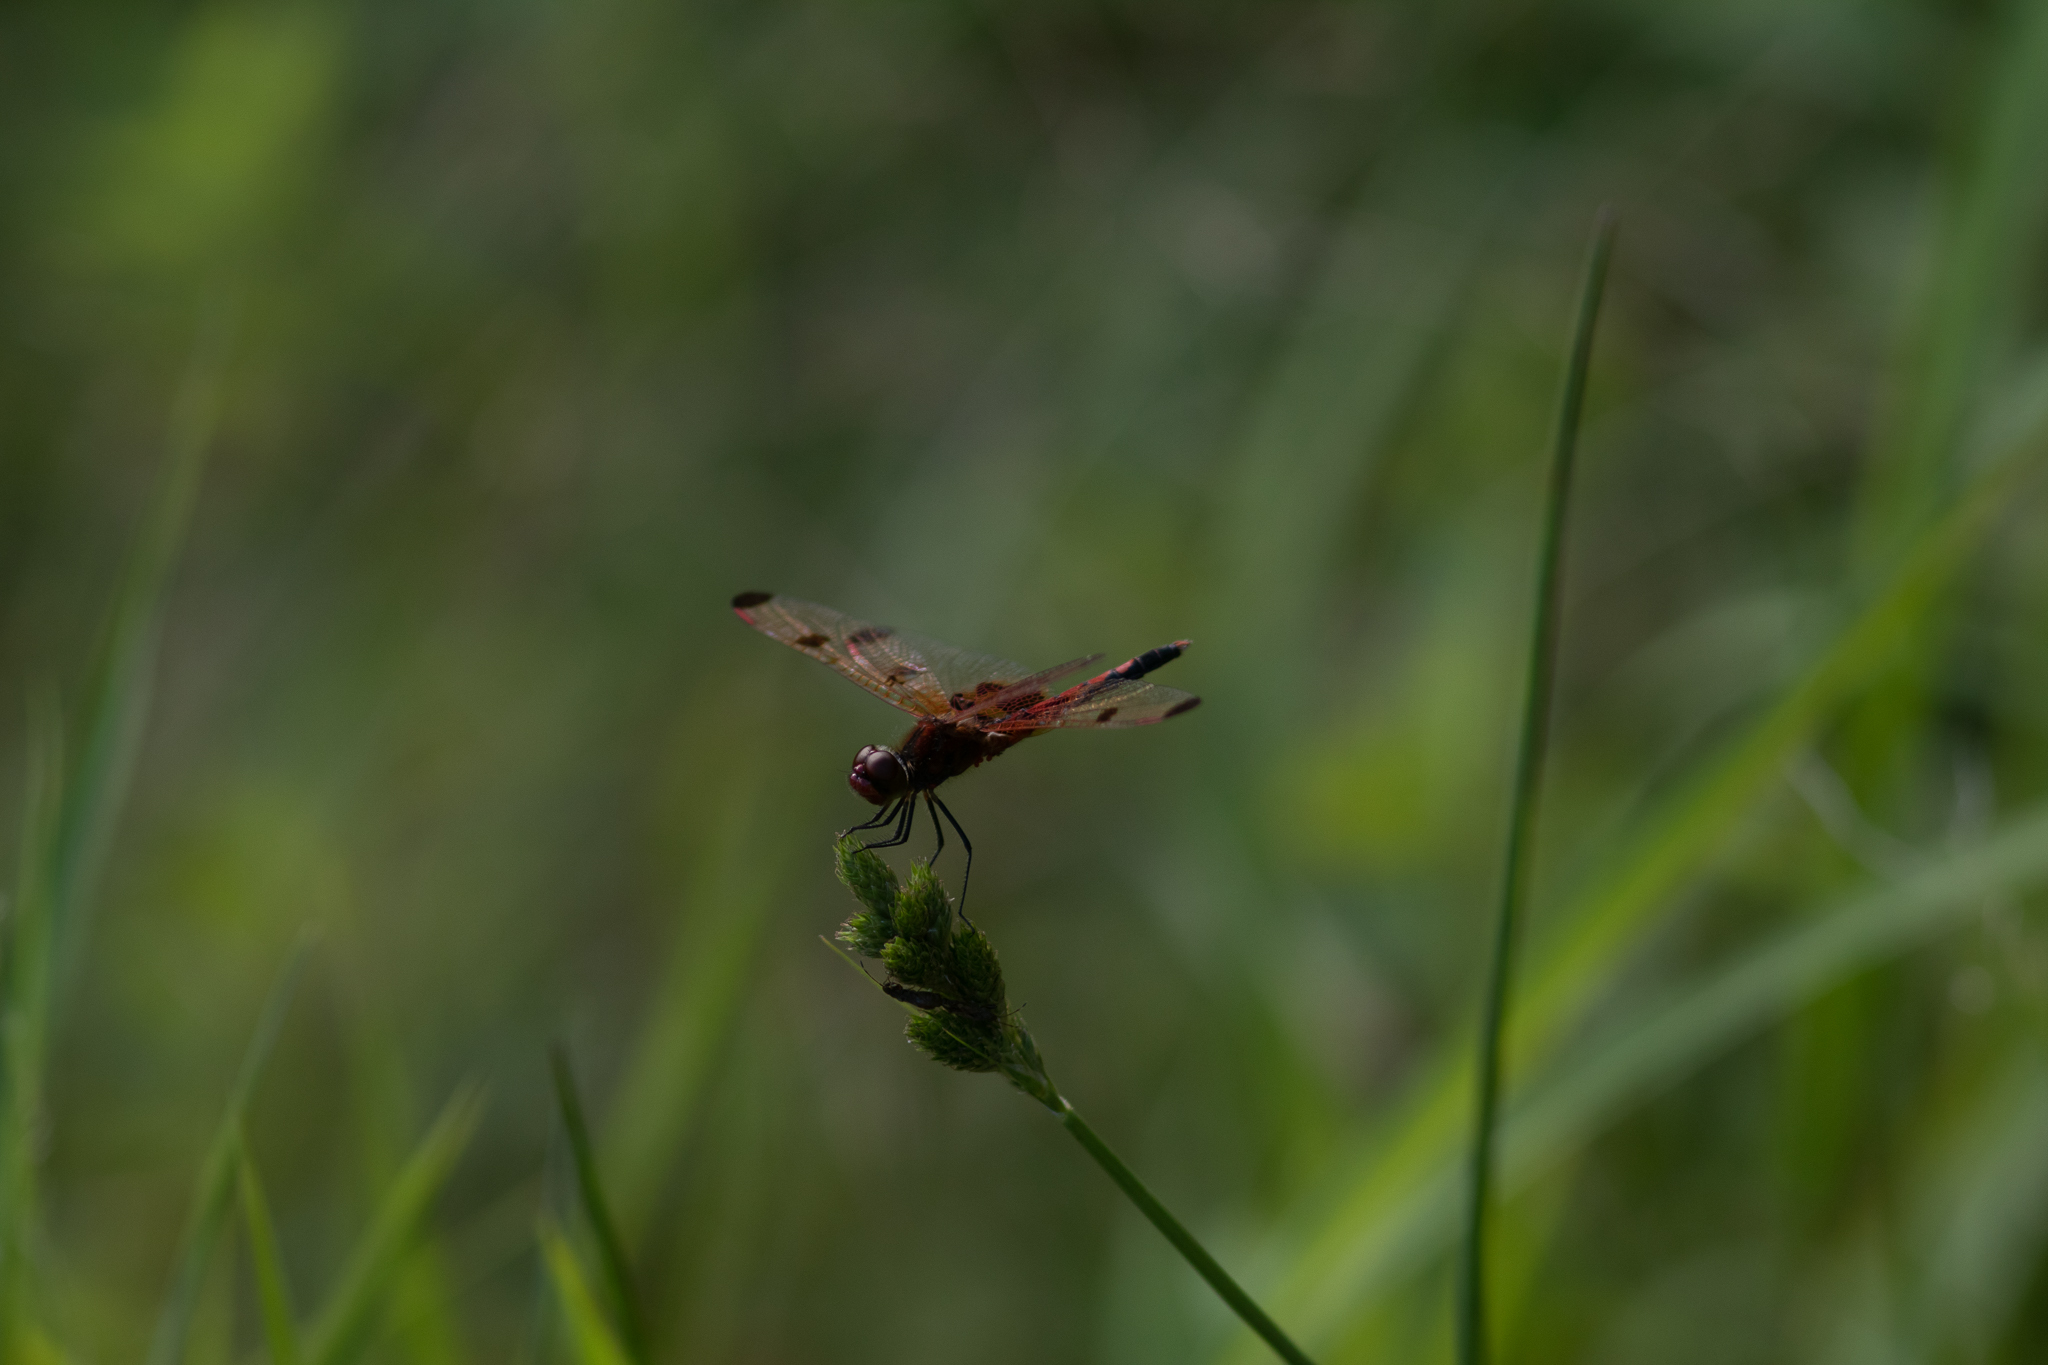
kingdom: Animalia
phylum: Arthropoda
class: Insecta
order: Odonata
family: Libellulidae
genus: Celithemis
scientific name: Celithemis elisa
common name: Calico pennant
